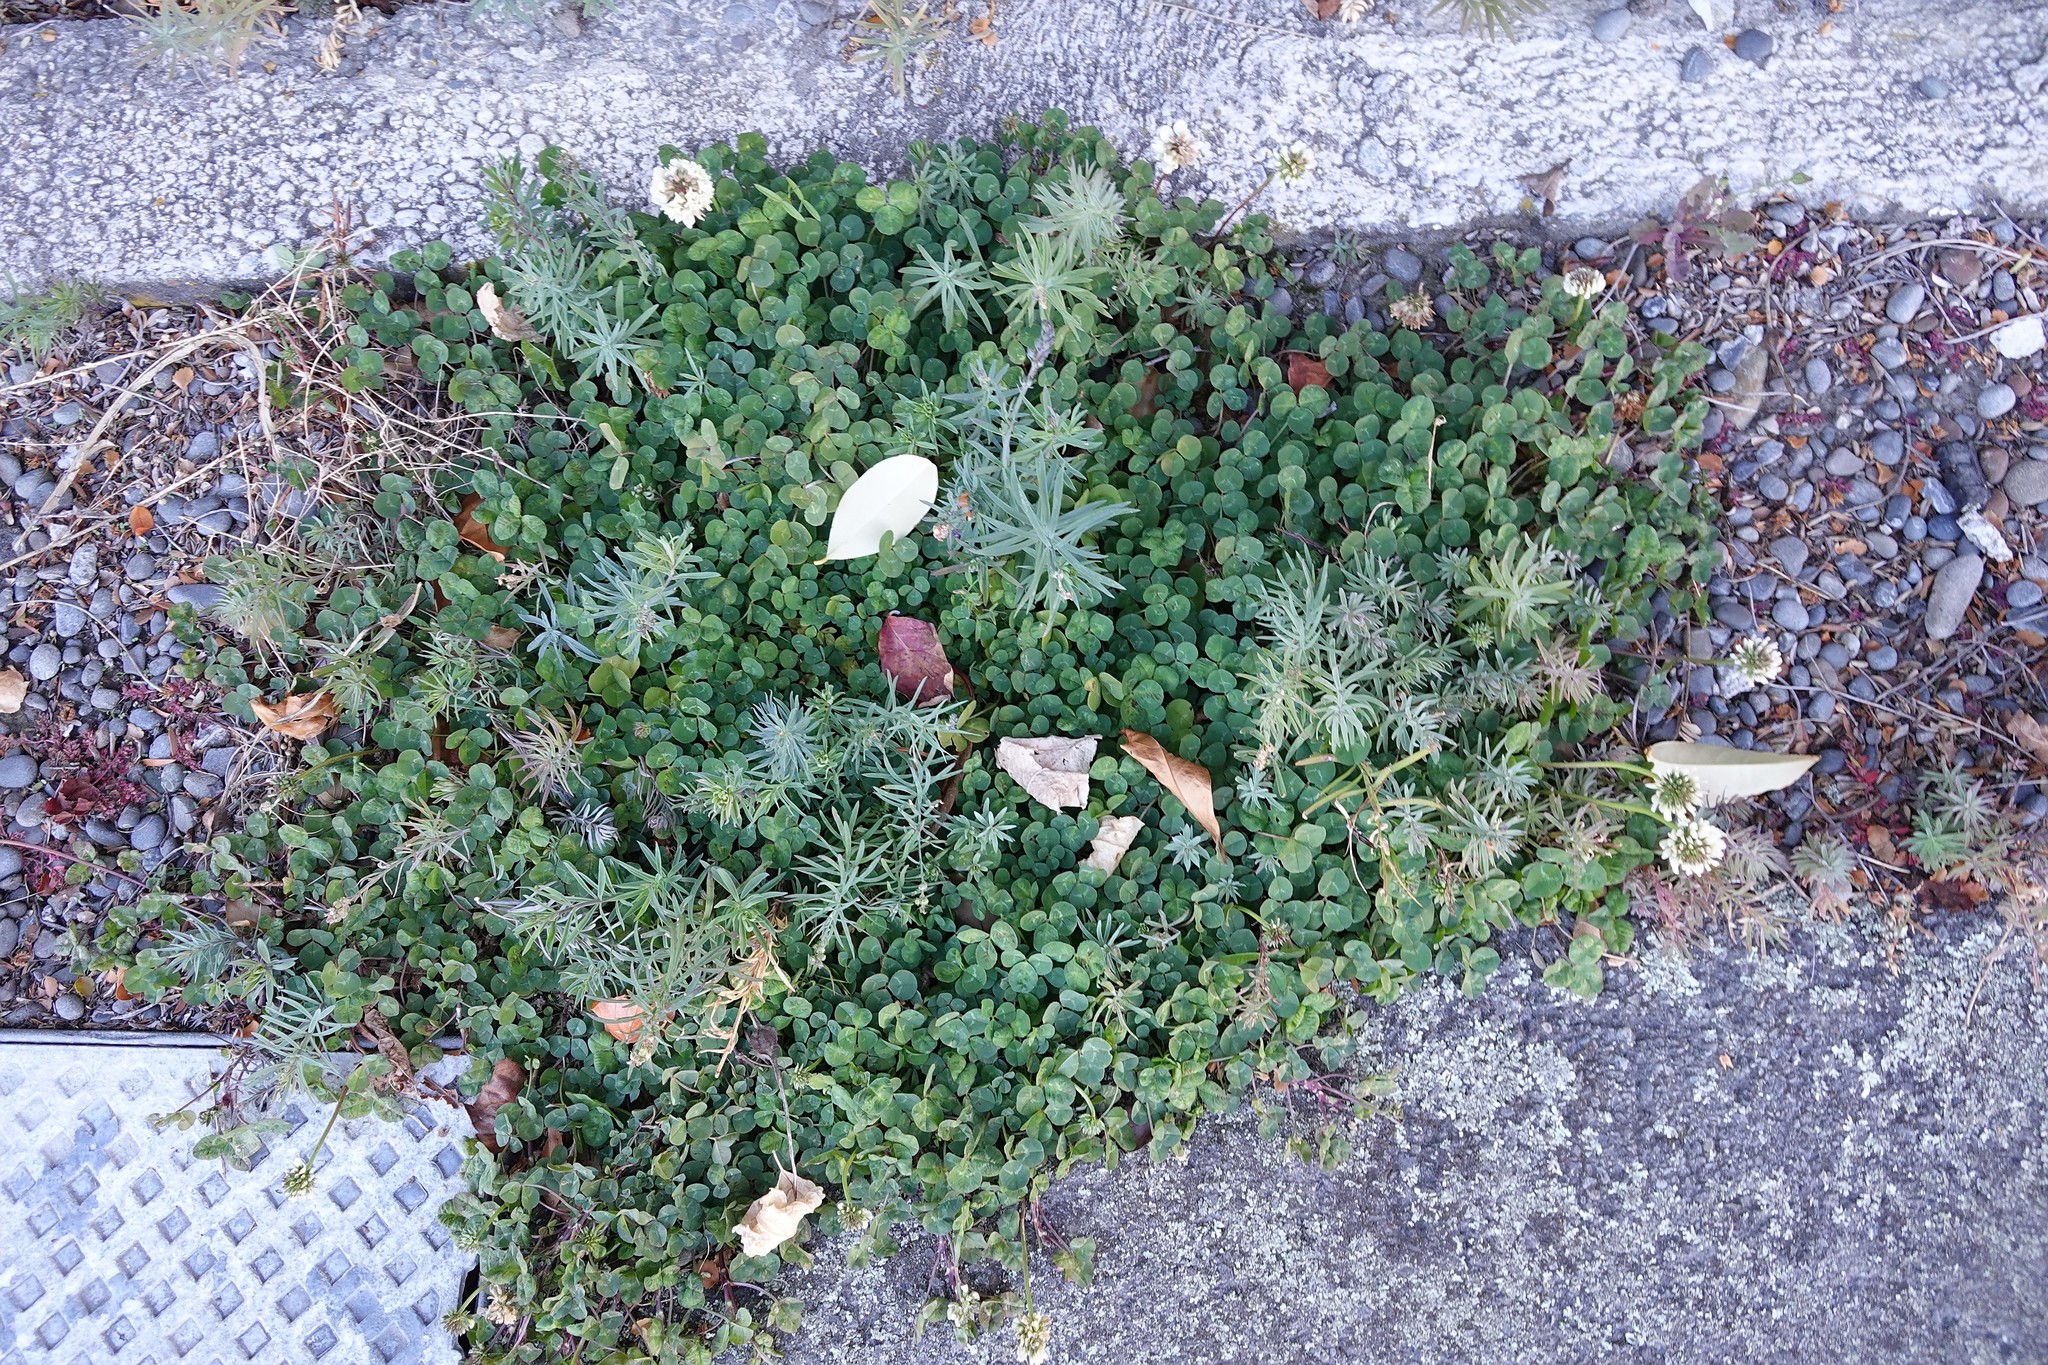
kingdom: Plantae
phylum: Tracheophyta
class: Magnoliopsida
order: Fabales
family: Fabaceae
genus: Trifolium
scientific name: Trifolium repens
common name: White clover
